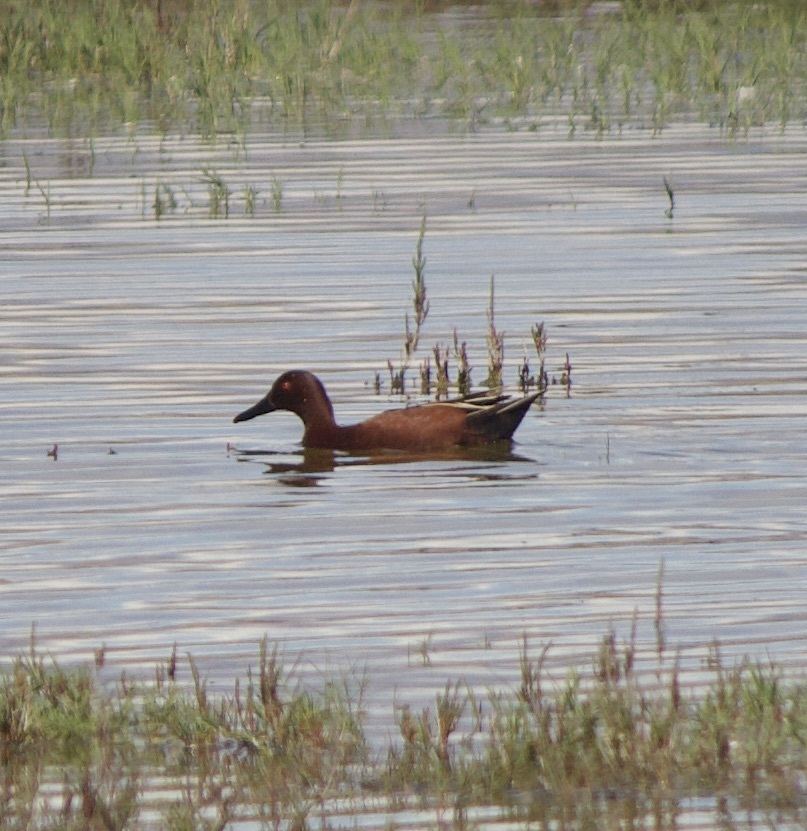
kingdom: Animalia
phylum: Chordata
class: Aves
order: Anseriformes
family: Anatidae
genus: Spatula
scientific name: Spatula cyanoptera
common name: Cinnamon teal
